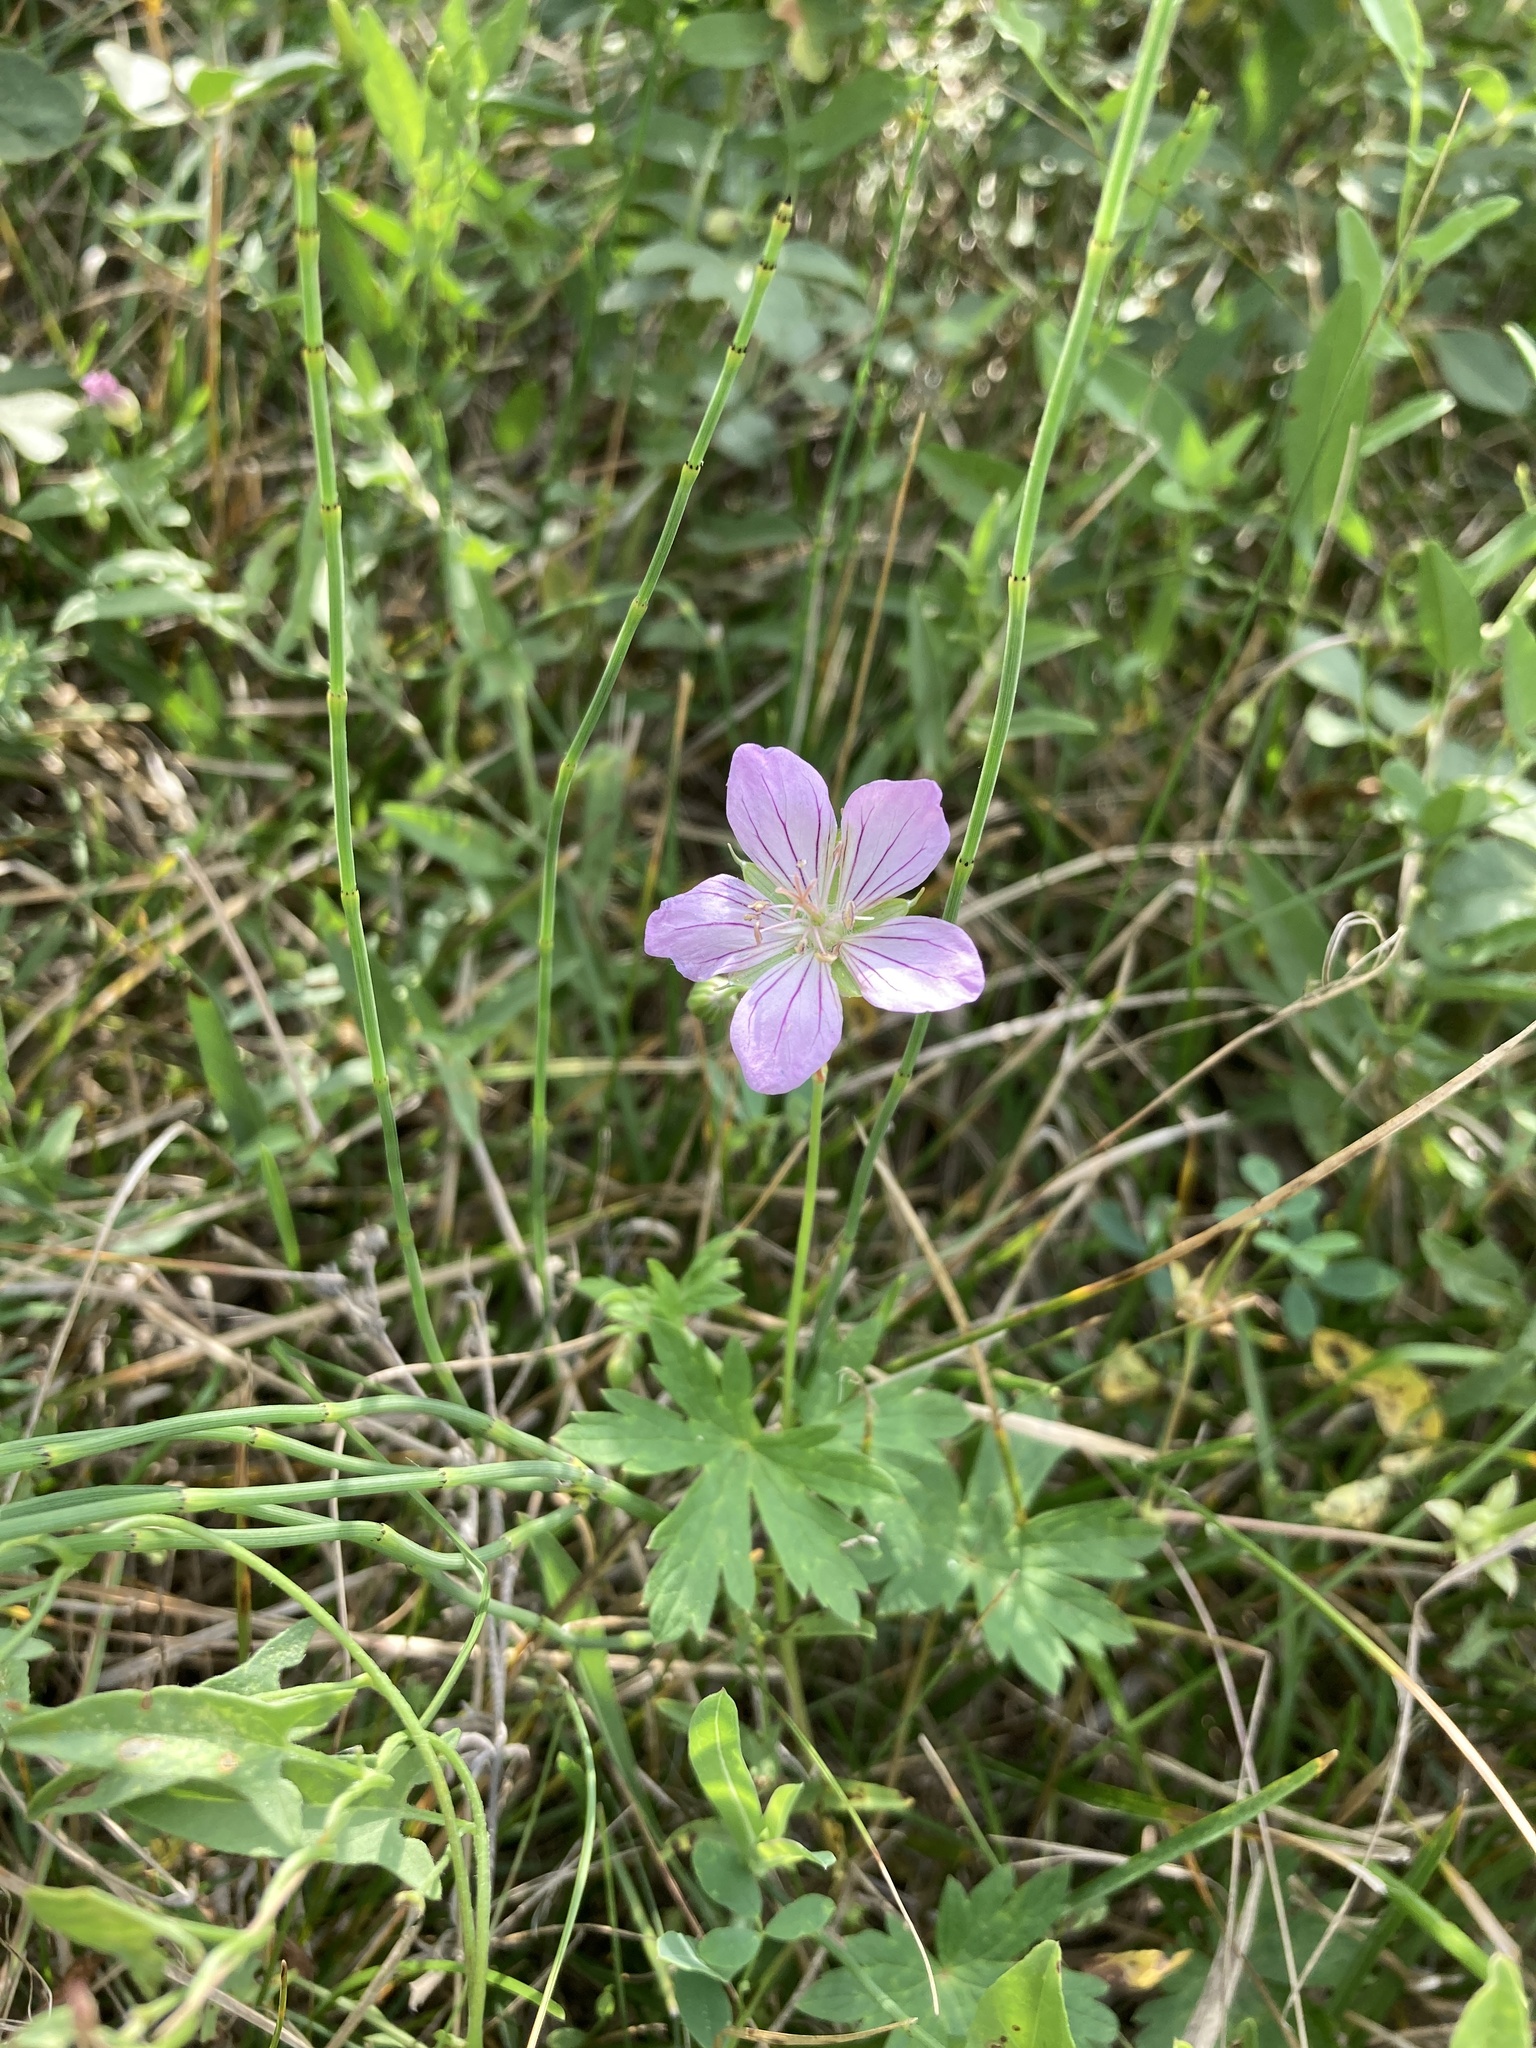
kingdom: Plantae
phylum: Tracheophyta
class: Magnoliopsida
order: Geraniales
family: Geraniaceae
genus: Geranium
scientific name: Geranium collinum
